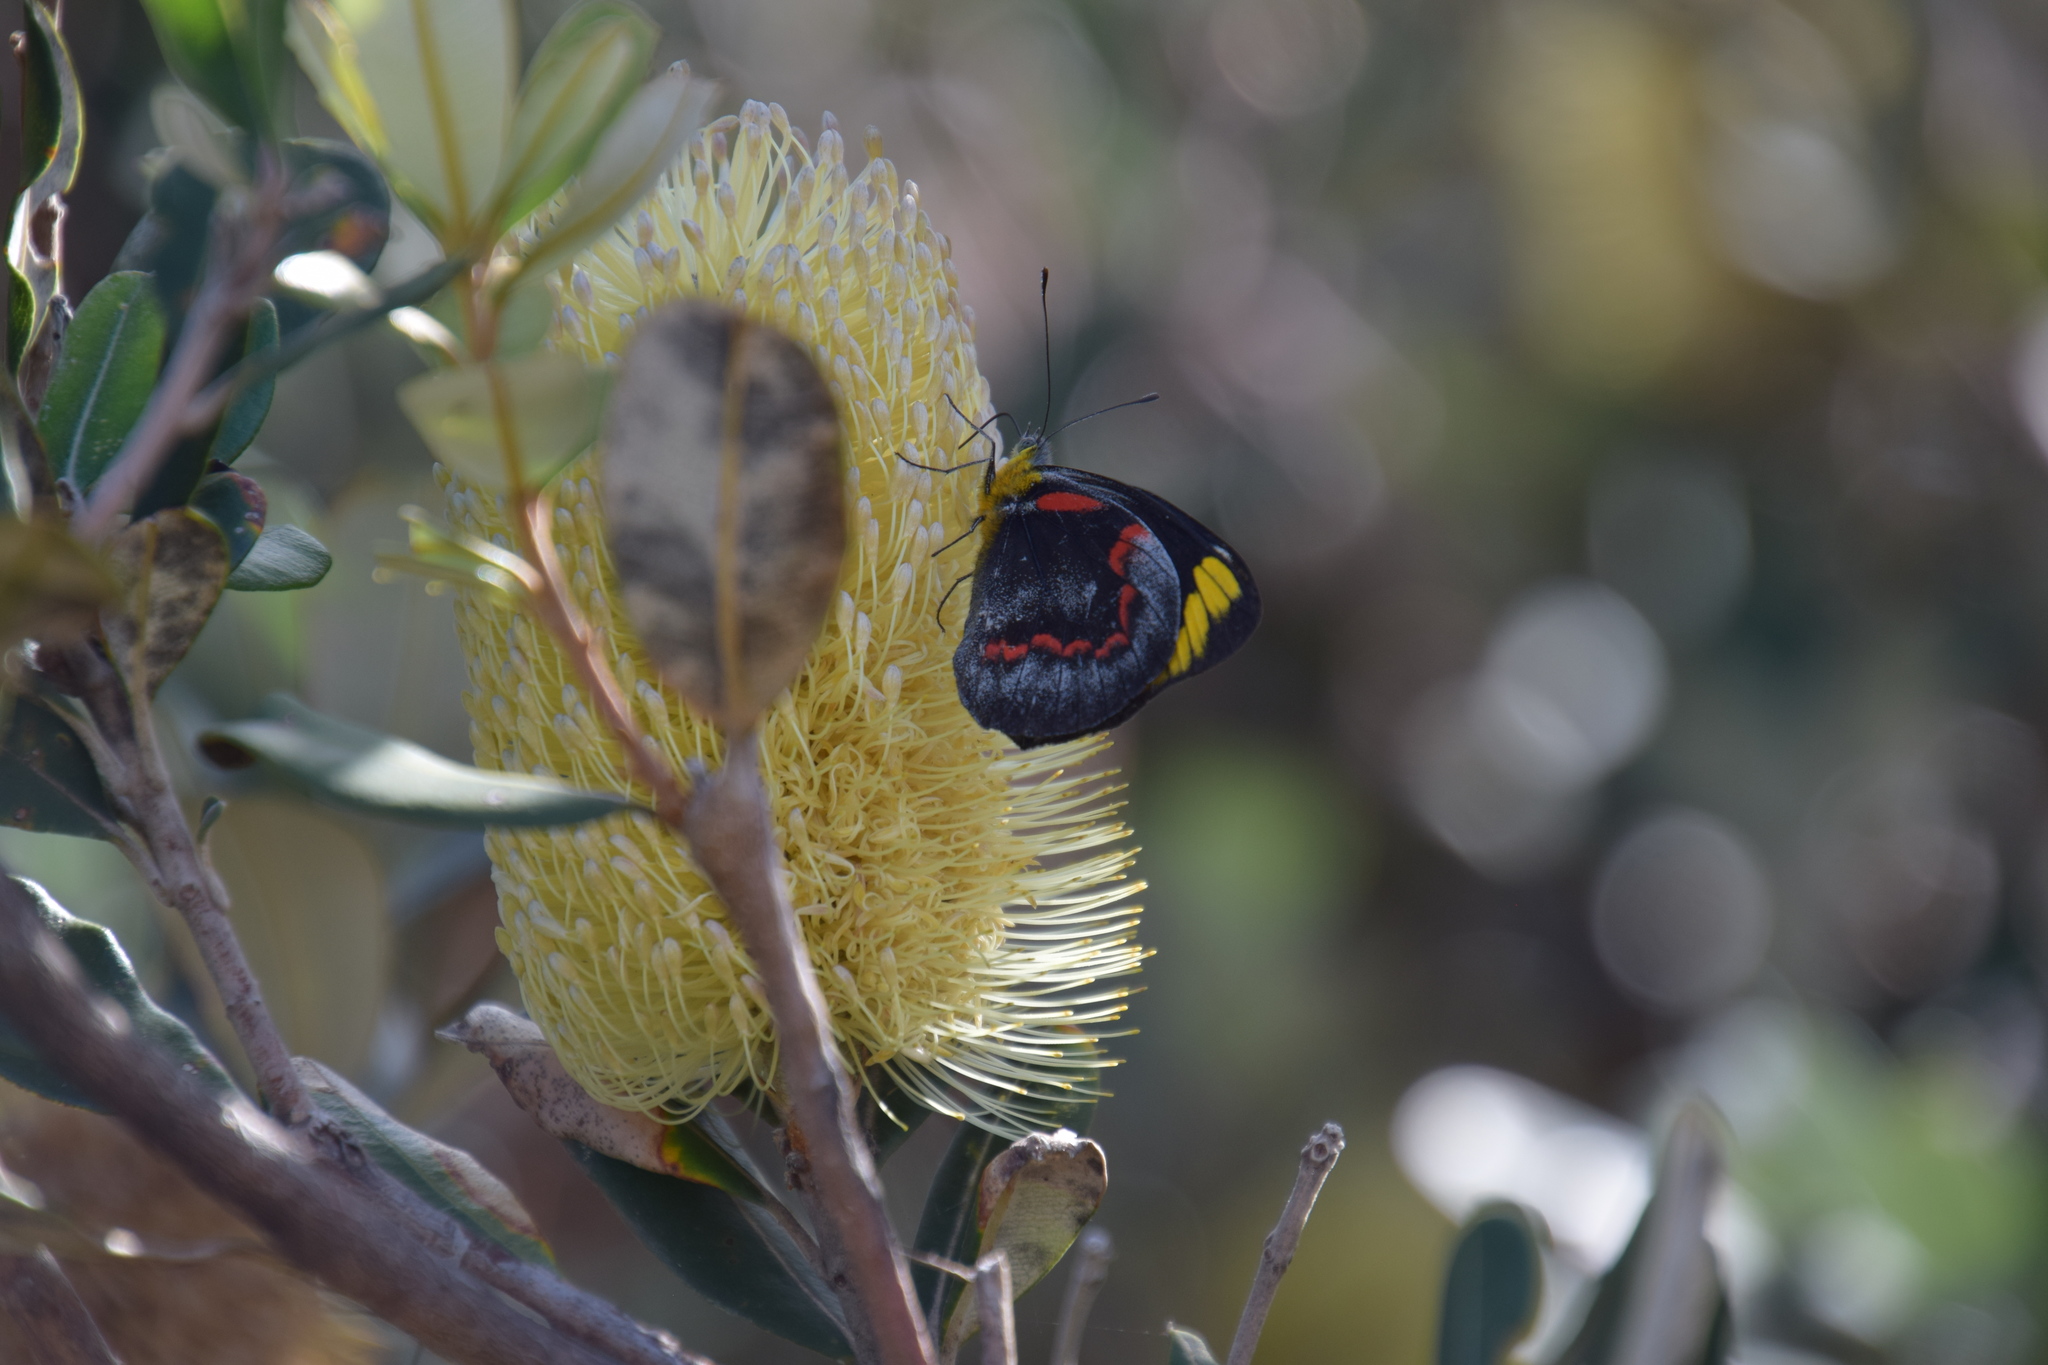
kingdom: Animalia
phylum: Arthropoda
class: Insecta
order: Lepidoptera
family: Pieridae
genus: Delias
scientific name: Delias nigrina
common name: Black jezebel
